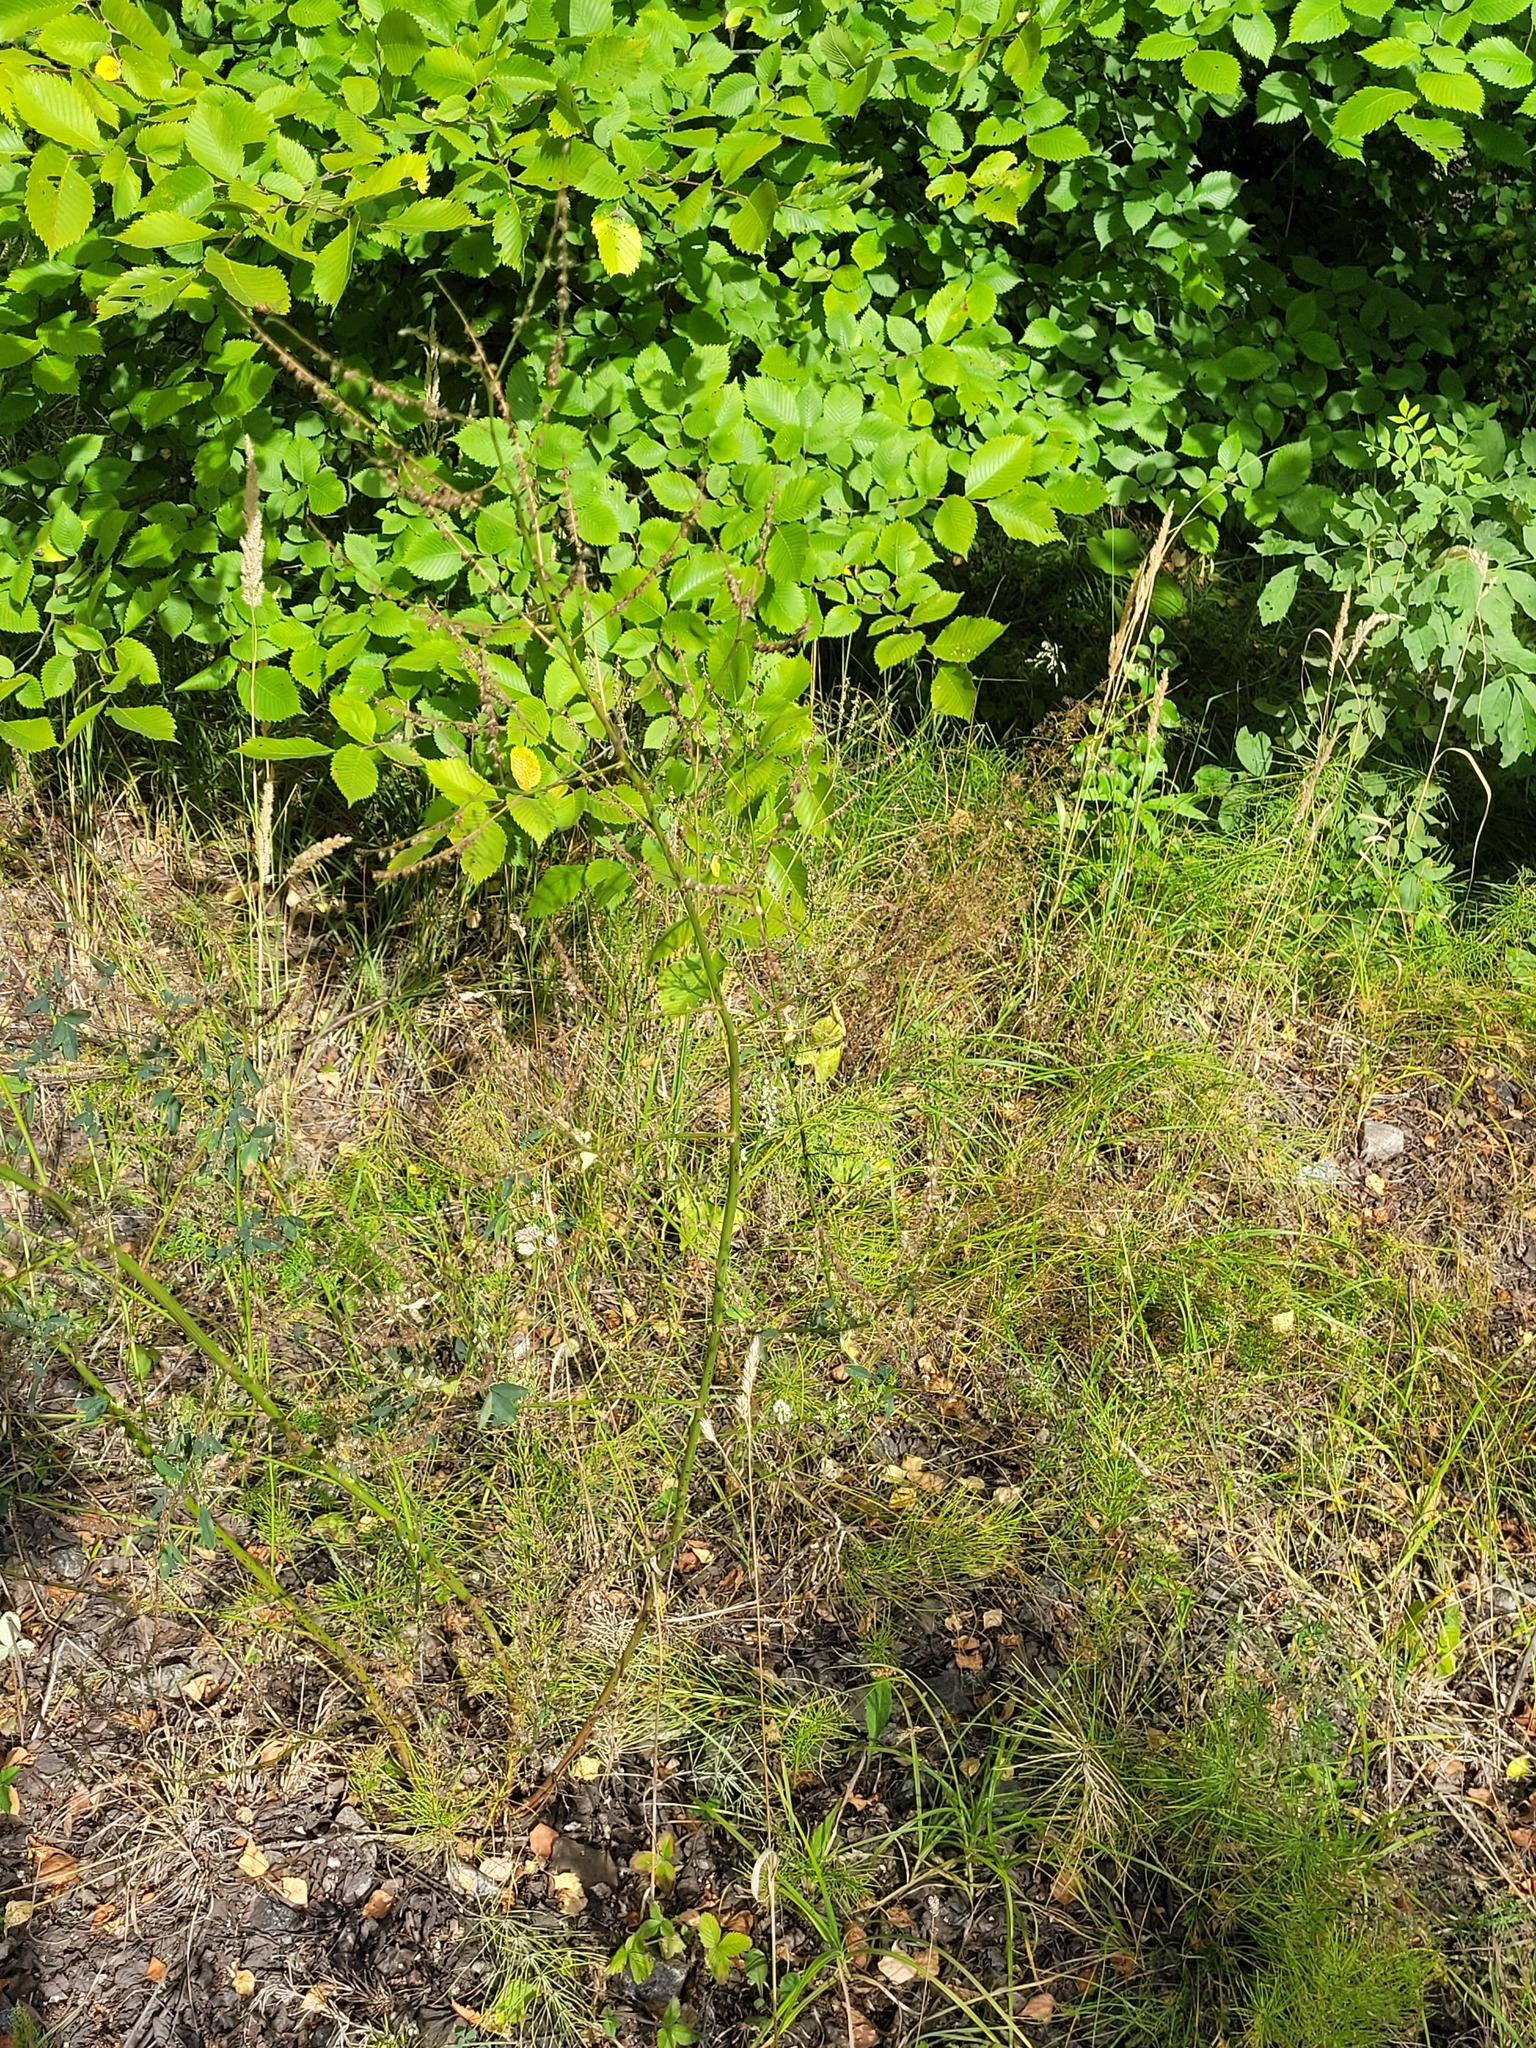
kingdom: Plantae
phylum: Tracheophyta
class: Magnoliopsida
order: Fabales
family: Fabaceae
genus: Melilotus
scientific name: Melilotus albus
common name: White melilot
